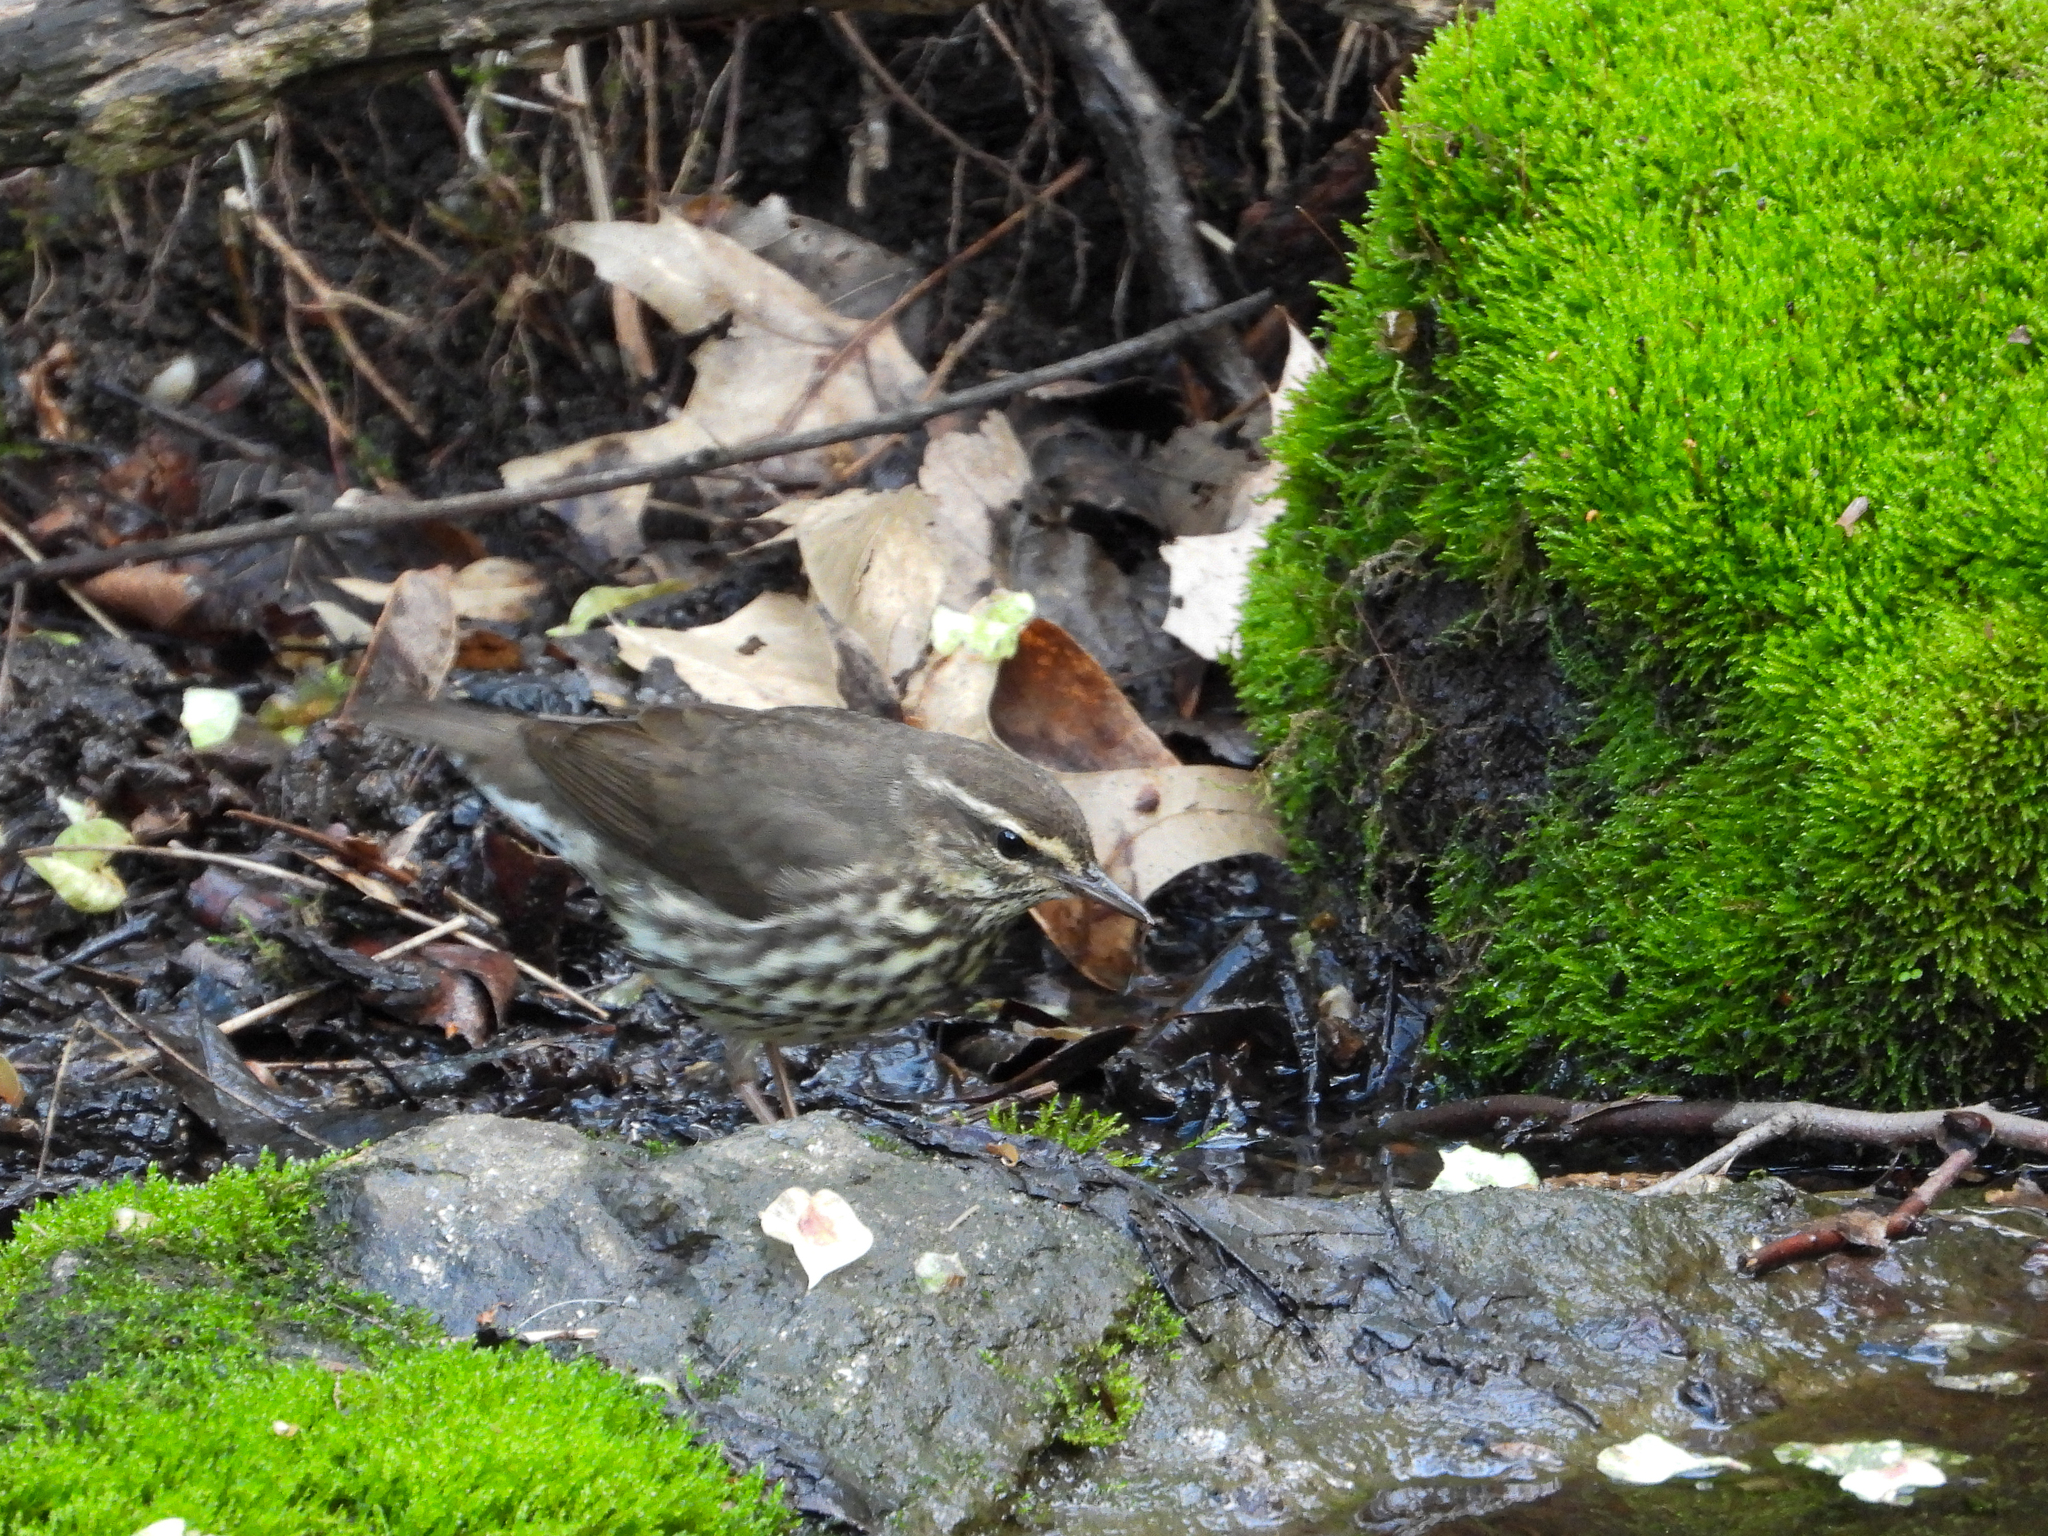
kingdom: Animalia
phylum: Chordata
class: Aves
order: Passeriformes
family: Parulidae
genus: Parkesia
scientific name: Parkesia noveboracensis
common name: Northern waterthrush
